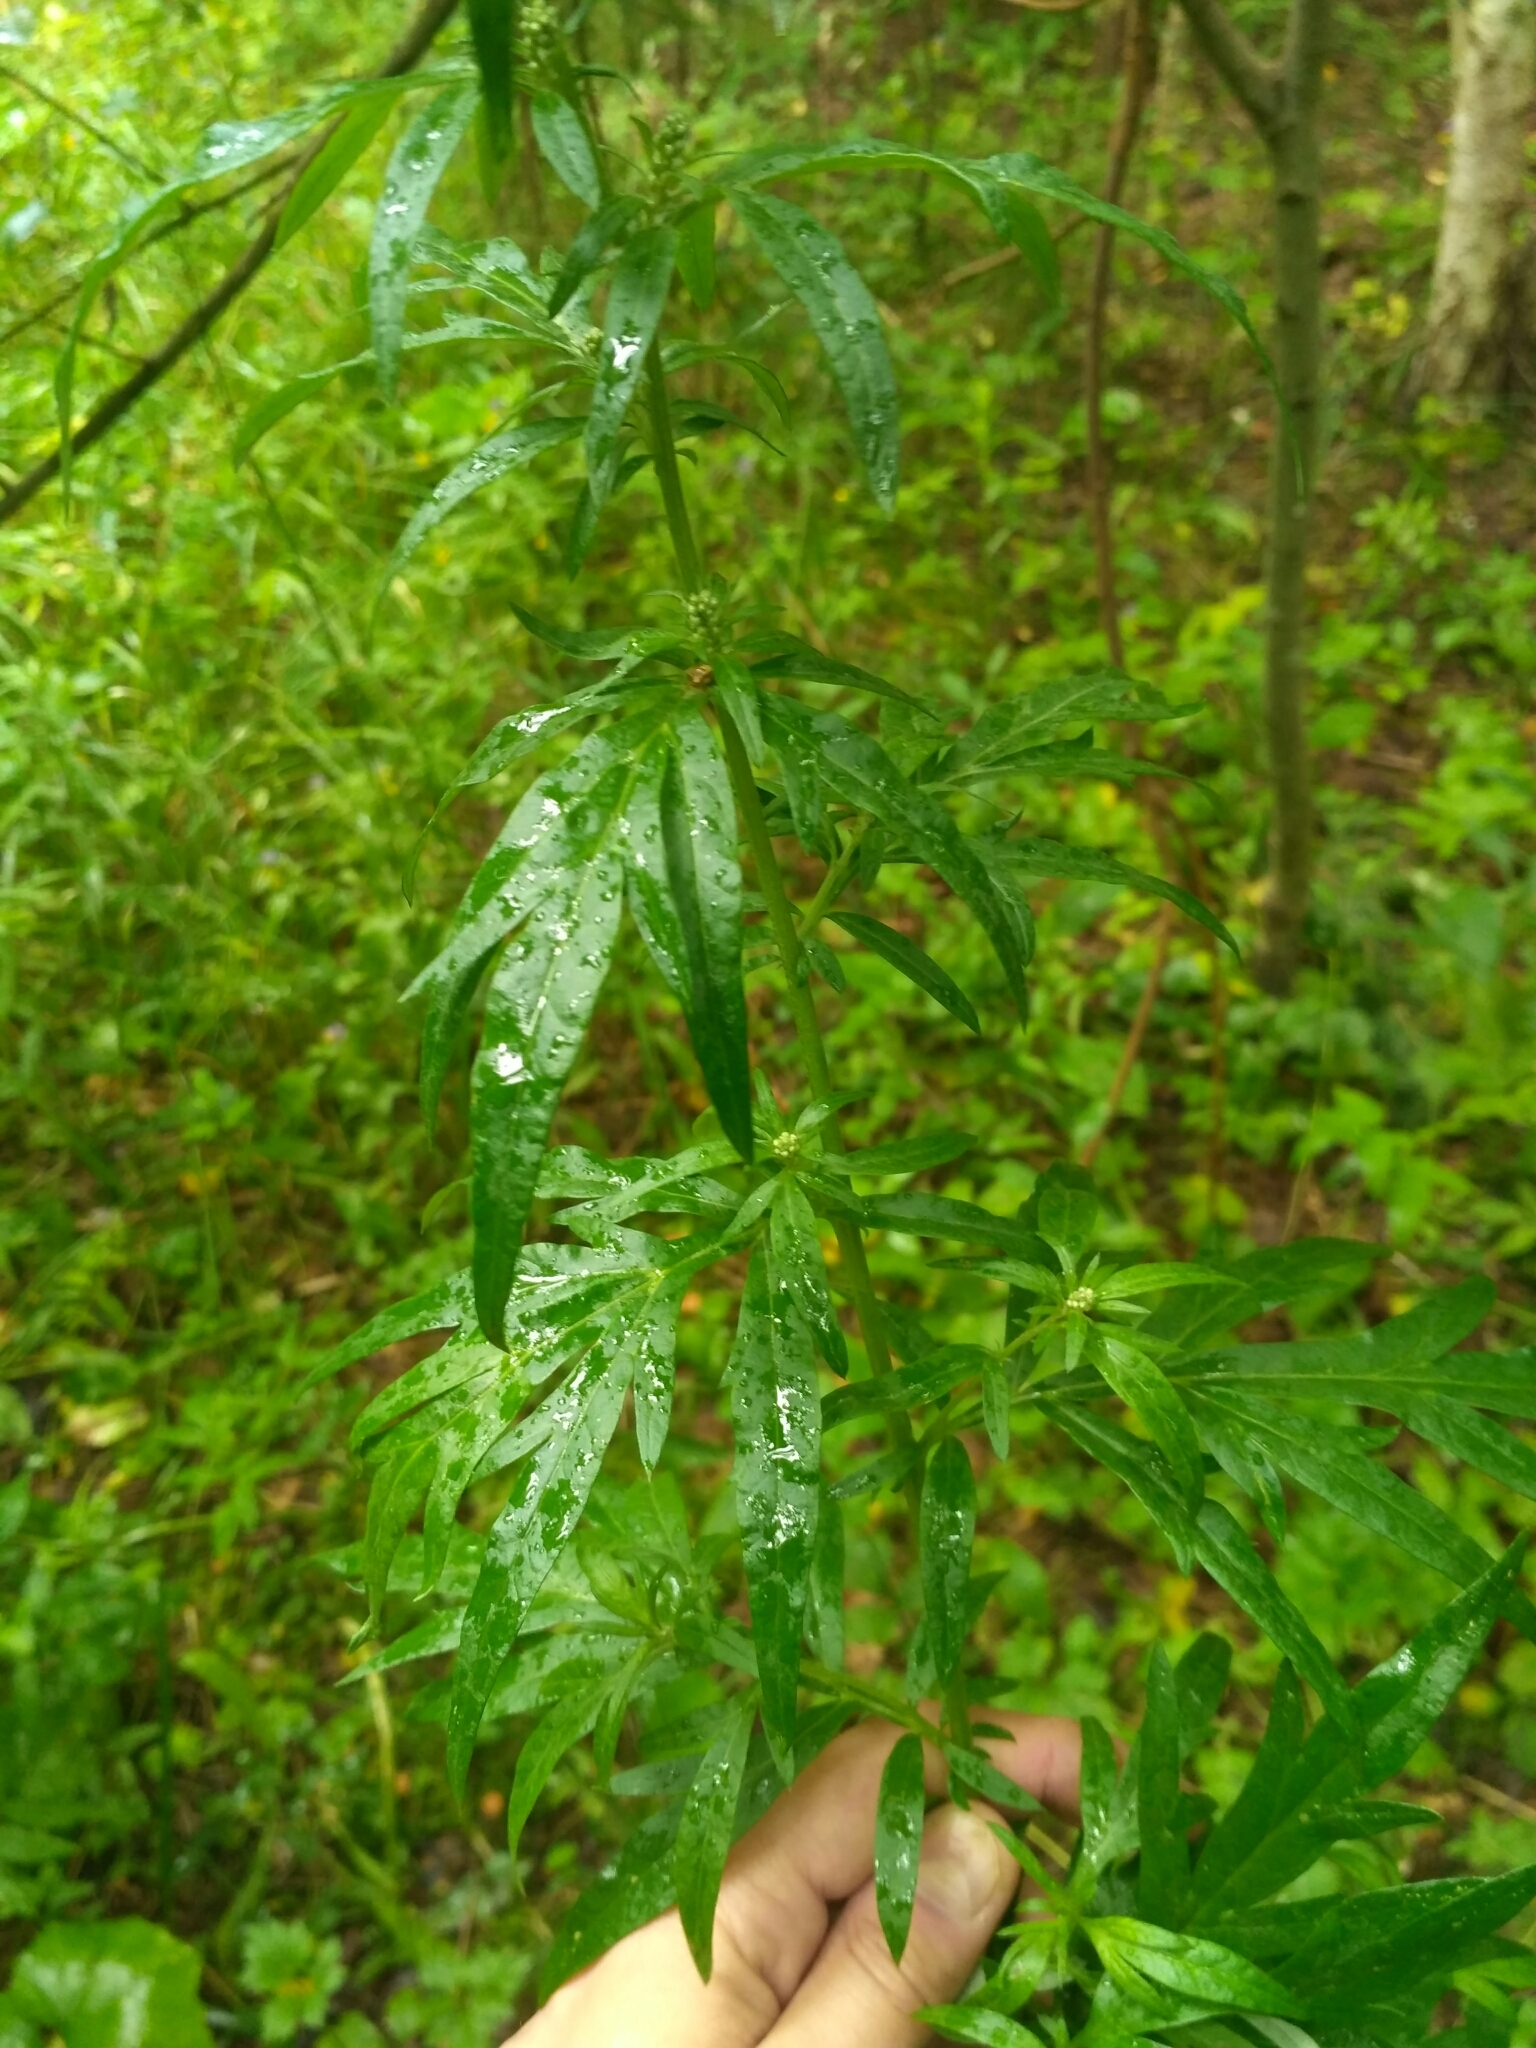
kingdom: Plantae
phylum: Tracheophyta
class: Magnoliopsida
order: Asterales
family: Asteraceae
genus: Artemisia
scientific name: Artemisia vulgaris
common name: Mugwort
